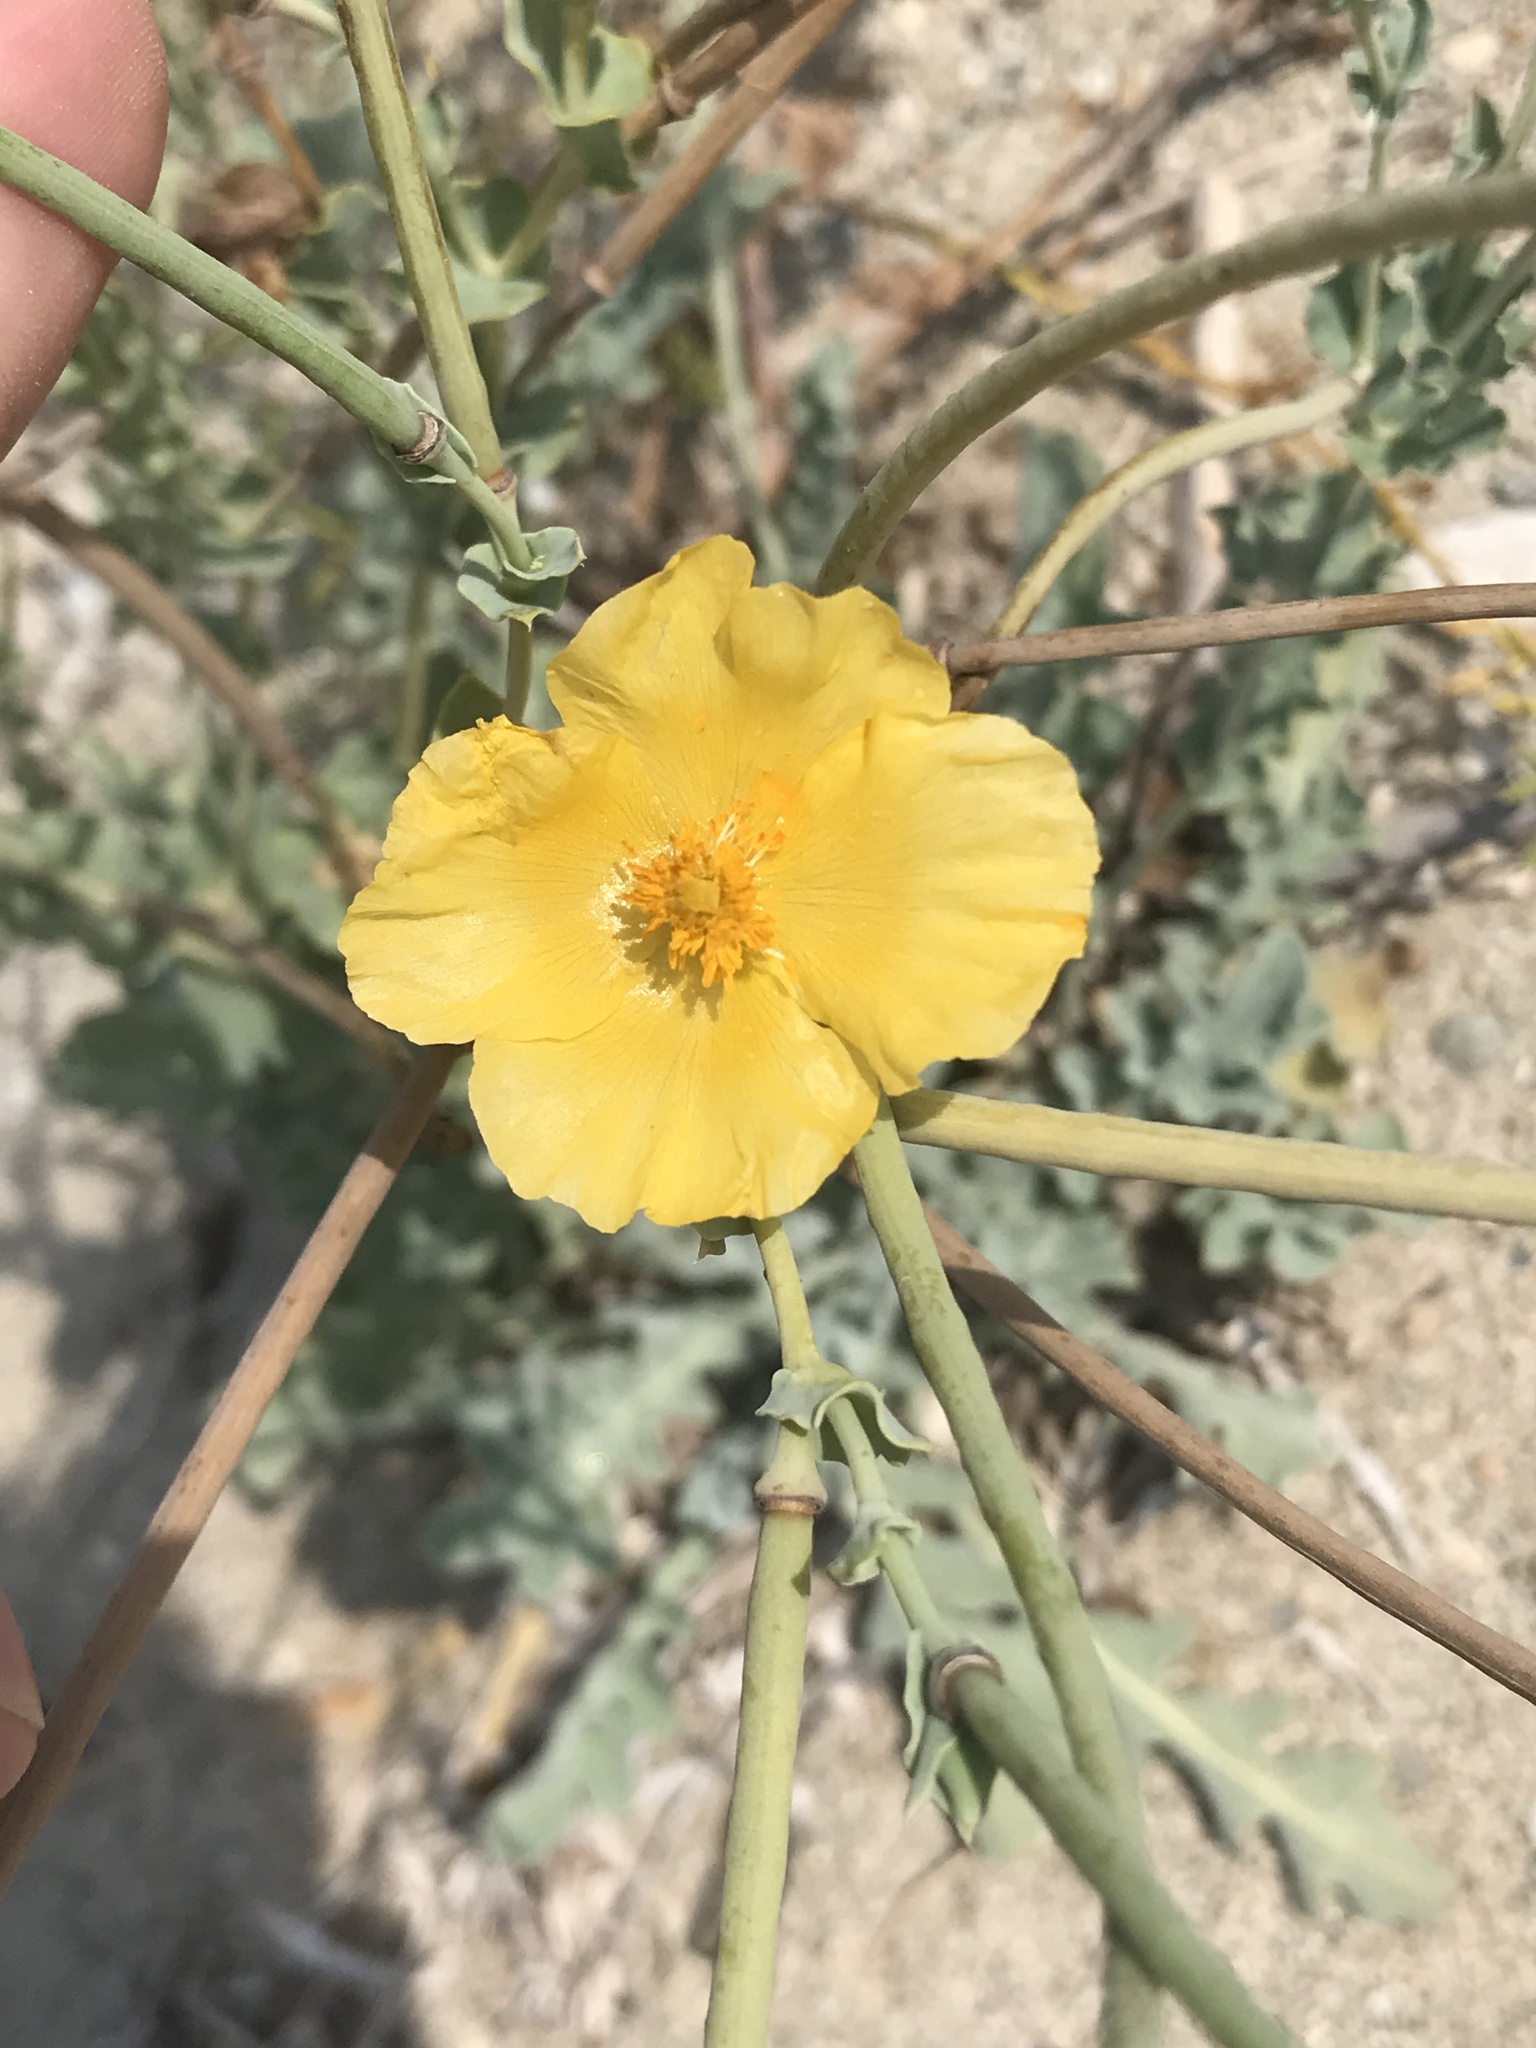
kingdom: Plantae
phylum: Tracheophyta
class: Magnoliopsida
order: Ranunculales
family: Papaveraceae
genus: Glaucium
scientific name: Glaucium flavum
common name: Yellow horned-poppy
